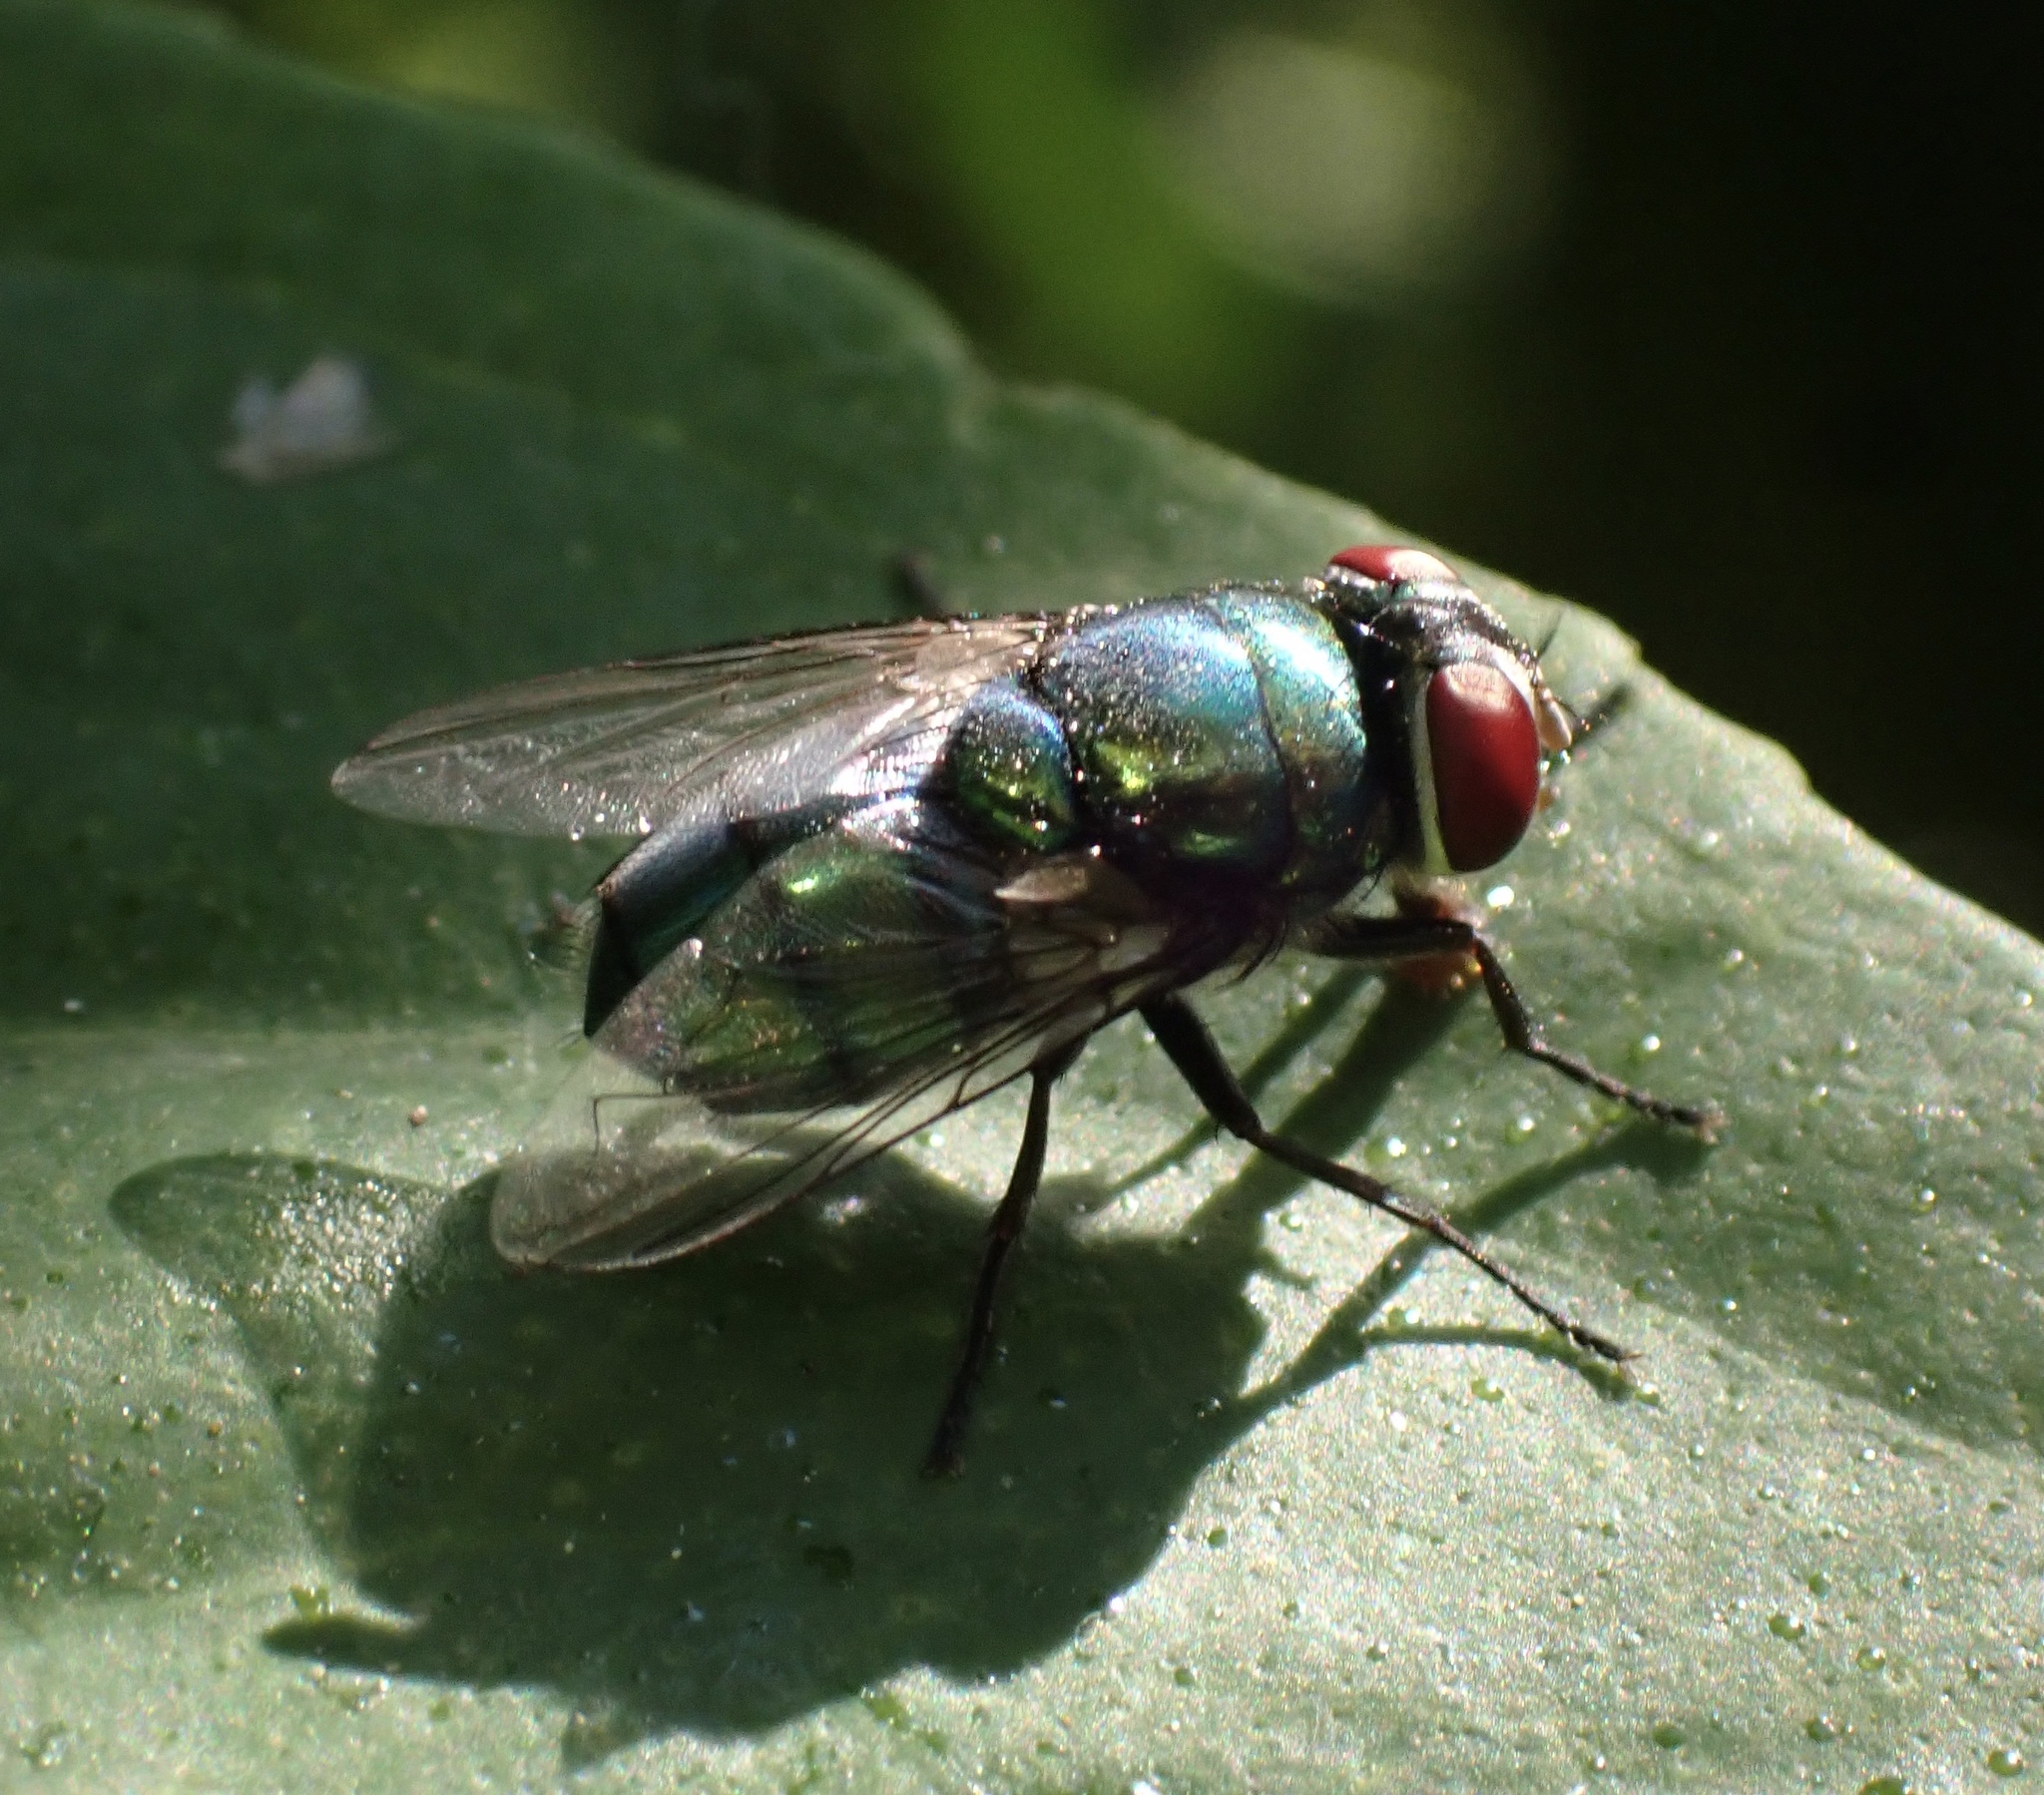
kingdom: Animalia
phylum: Arthropoda
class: Insecta
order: Diptera
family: Calliphoridae
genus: Chrysomya
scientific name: Chrysomya albiceps
